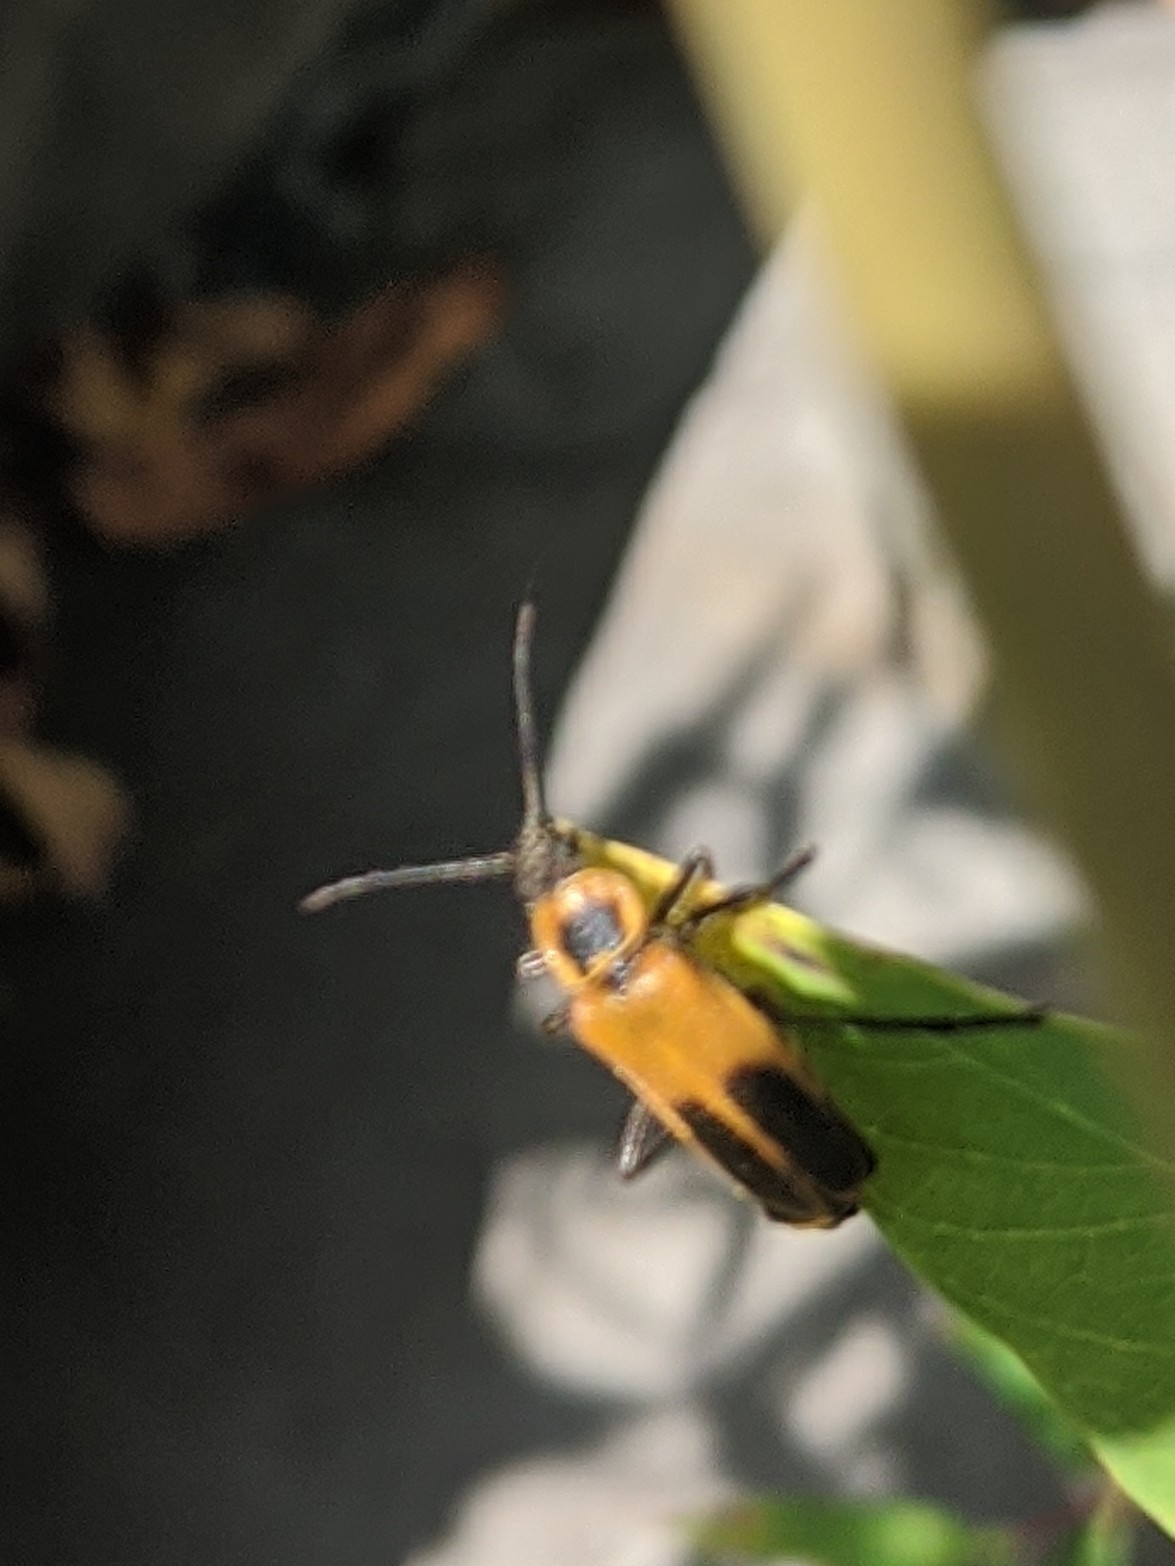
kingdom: Animalia
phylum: Arthropoda
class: Insecta
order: Coleoptera
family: Cantharidae
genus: Chauliognathus
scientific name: Chauliognathus pensylvanicus
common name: Goldenrod soldier beetle
